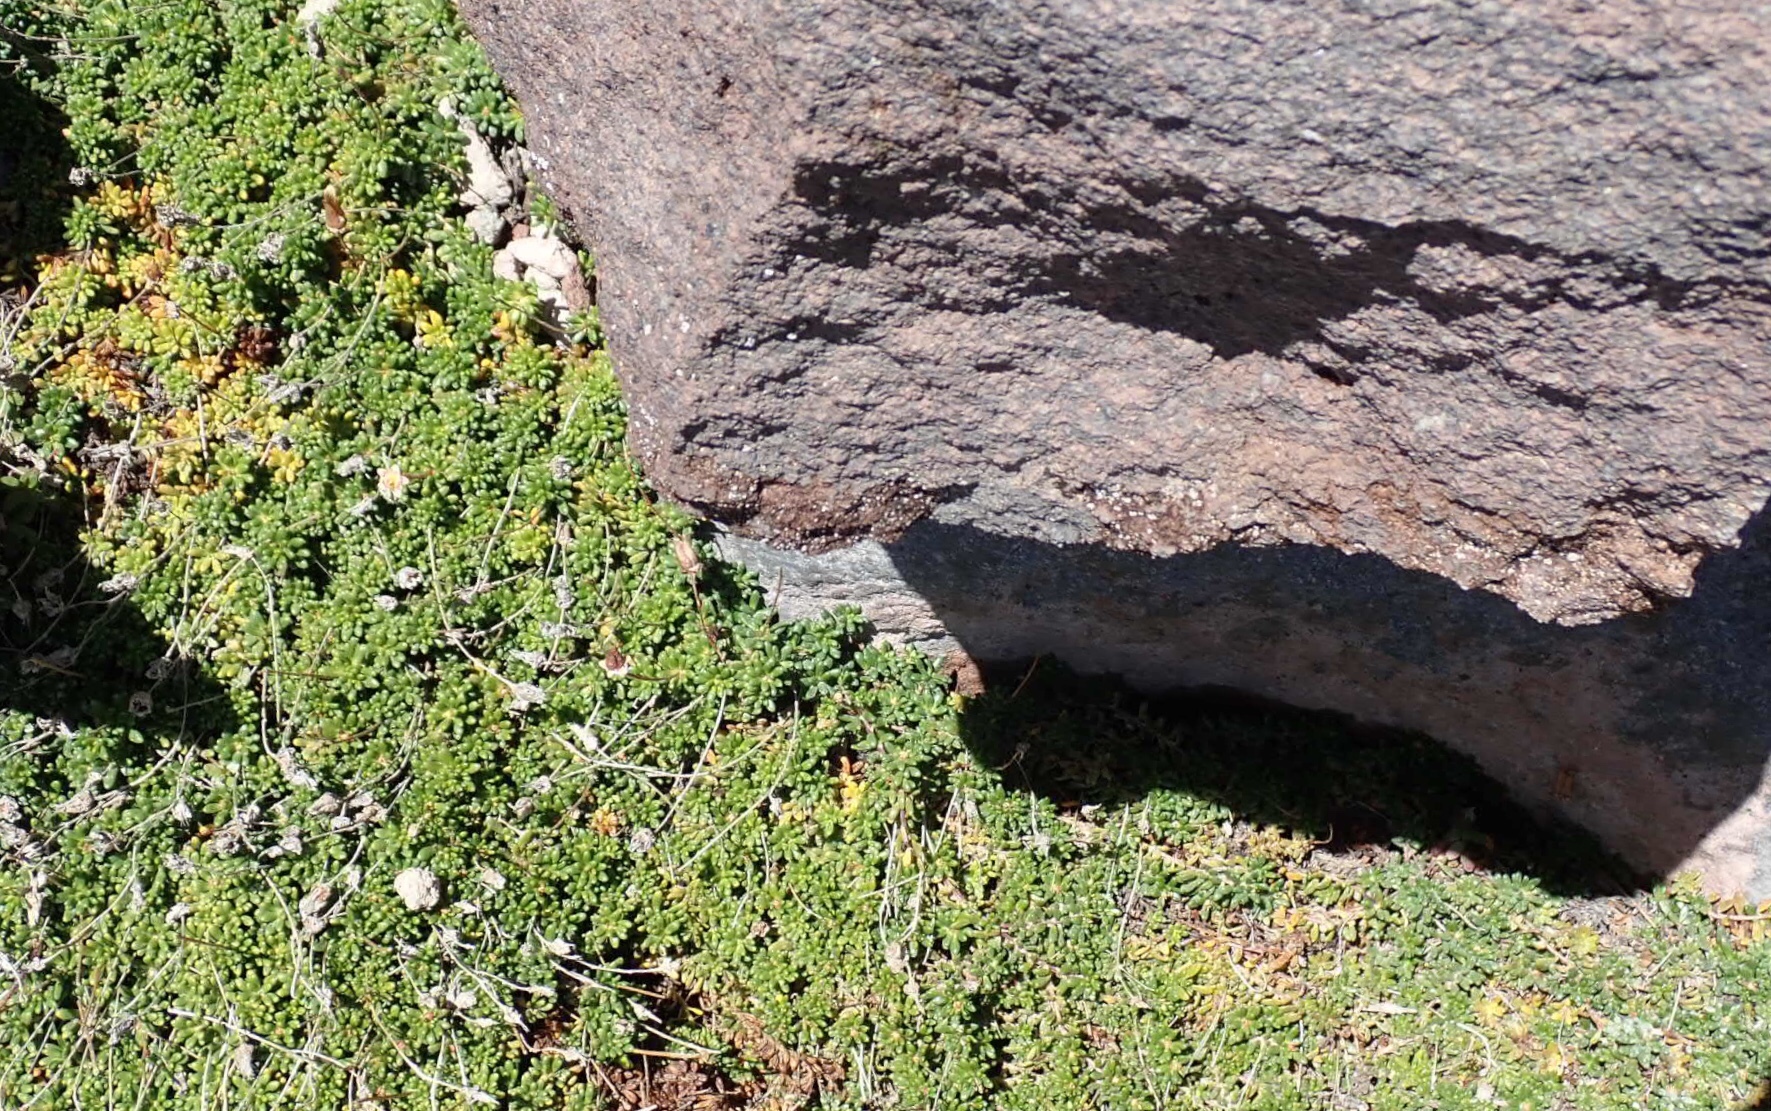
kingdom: Plantae
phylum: Tracheophyta
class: Magnoliopsida
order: Saxifragales
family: Saxifragaceae
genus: Micranthes
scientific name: Micranthes tolmiei
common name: Tolmie's saxifrage
